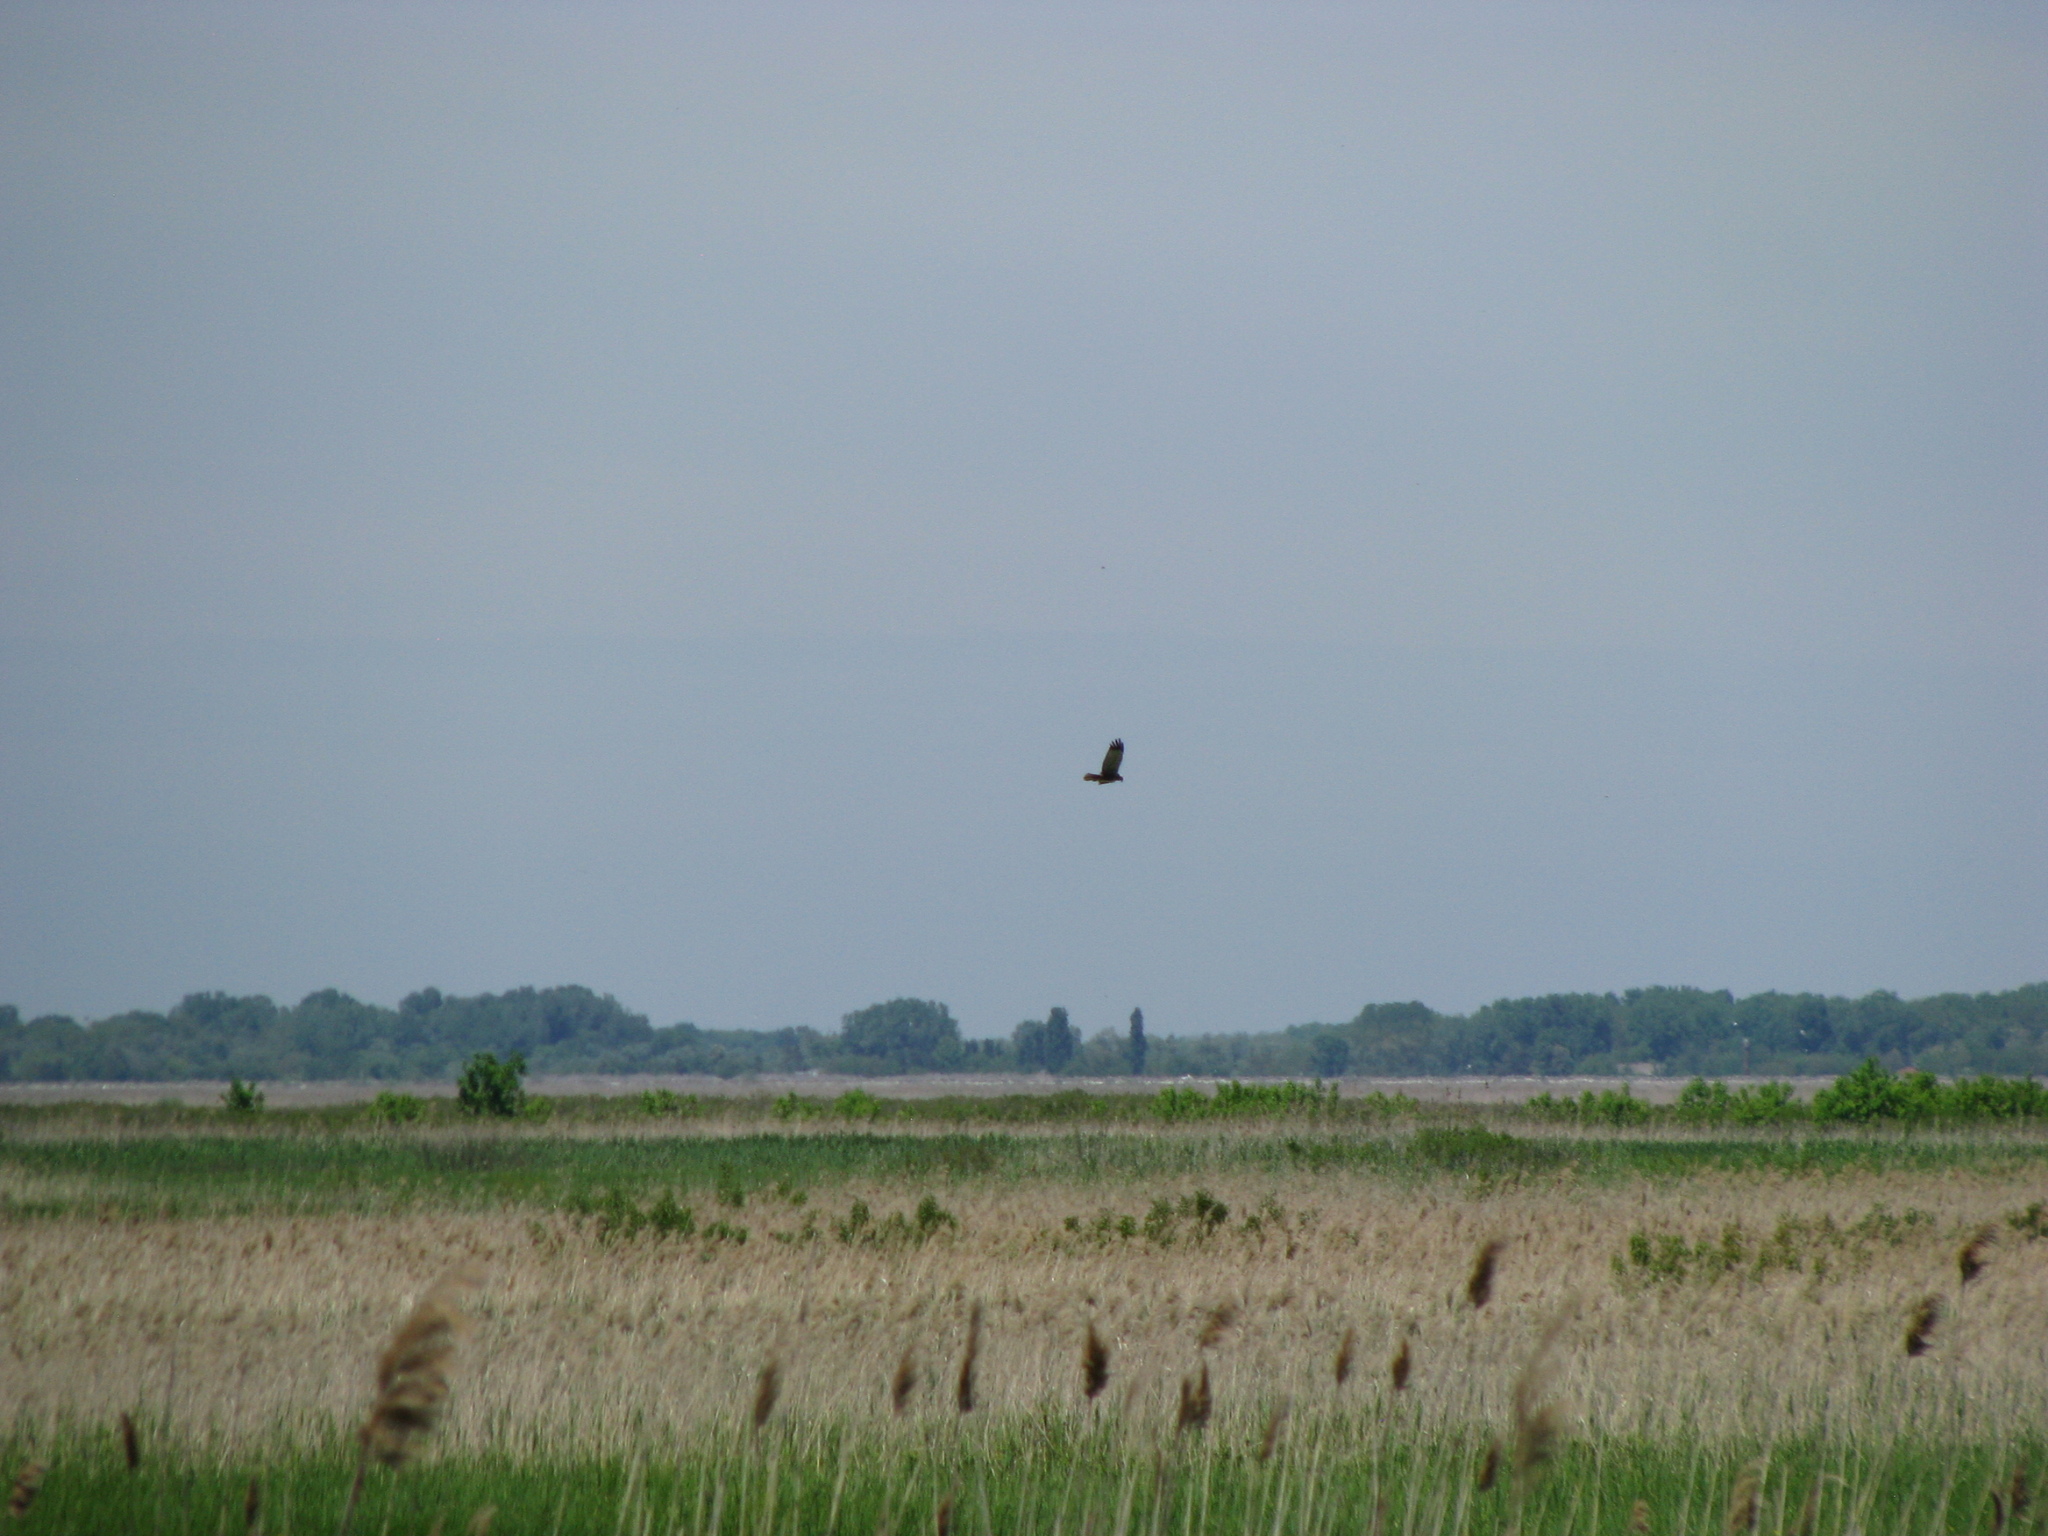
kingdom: Animalia
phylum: Chordata
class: Aves
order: Accipitriformes
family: Accipitridae
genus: Circus
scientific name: Circus aeruginosus
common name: Western marsh harrier
